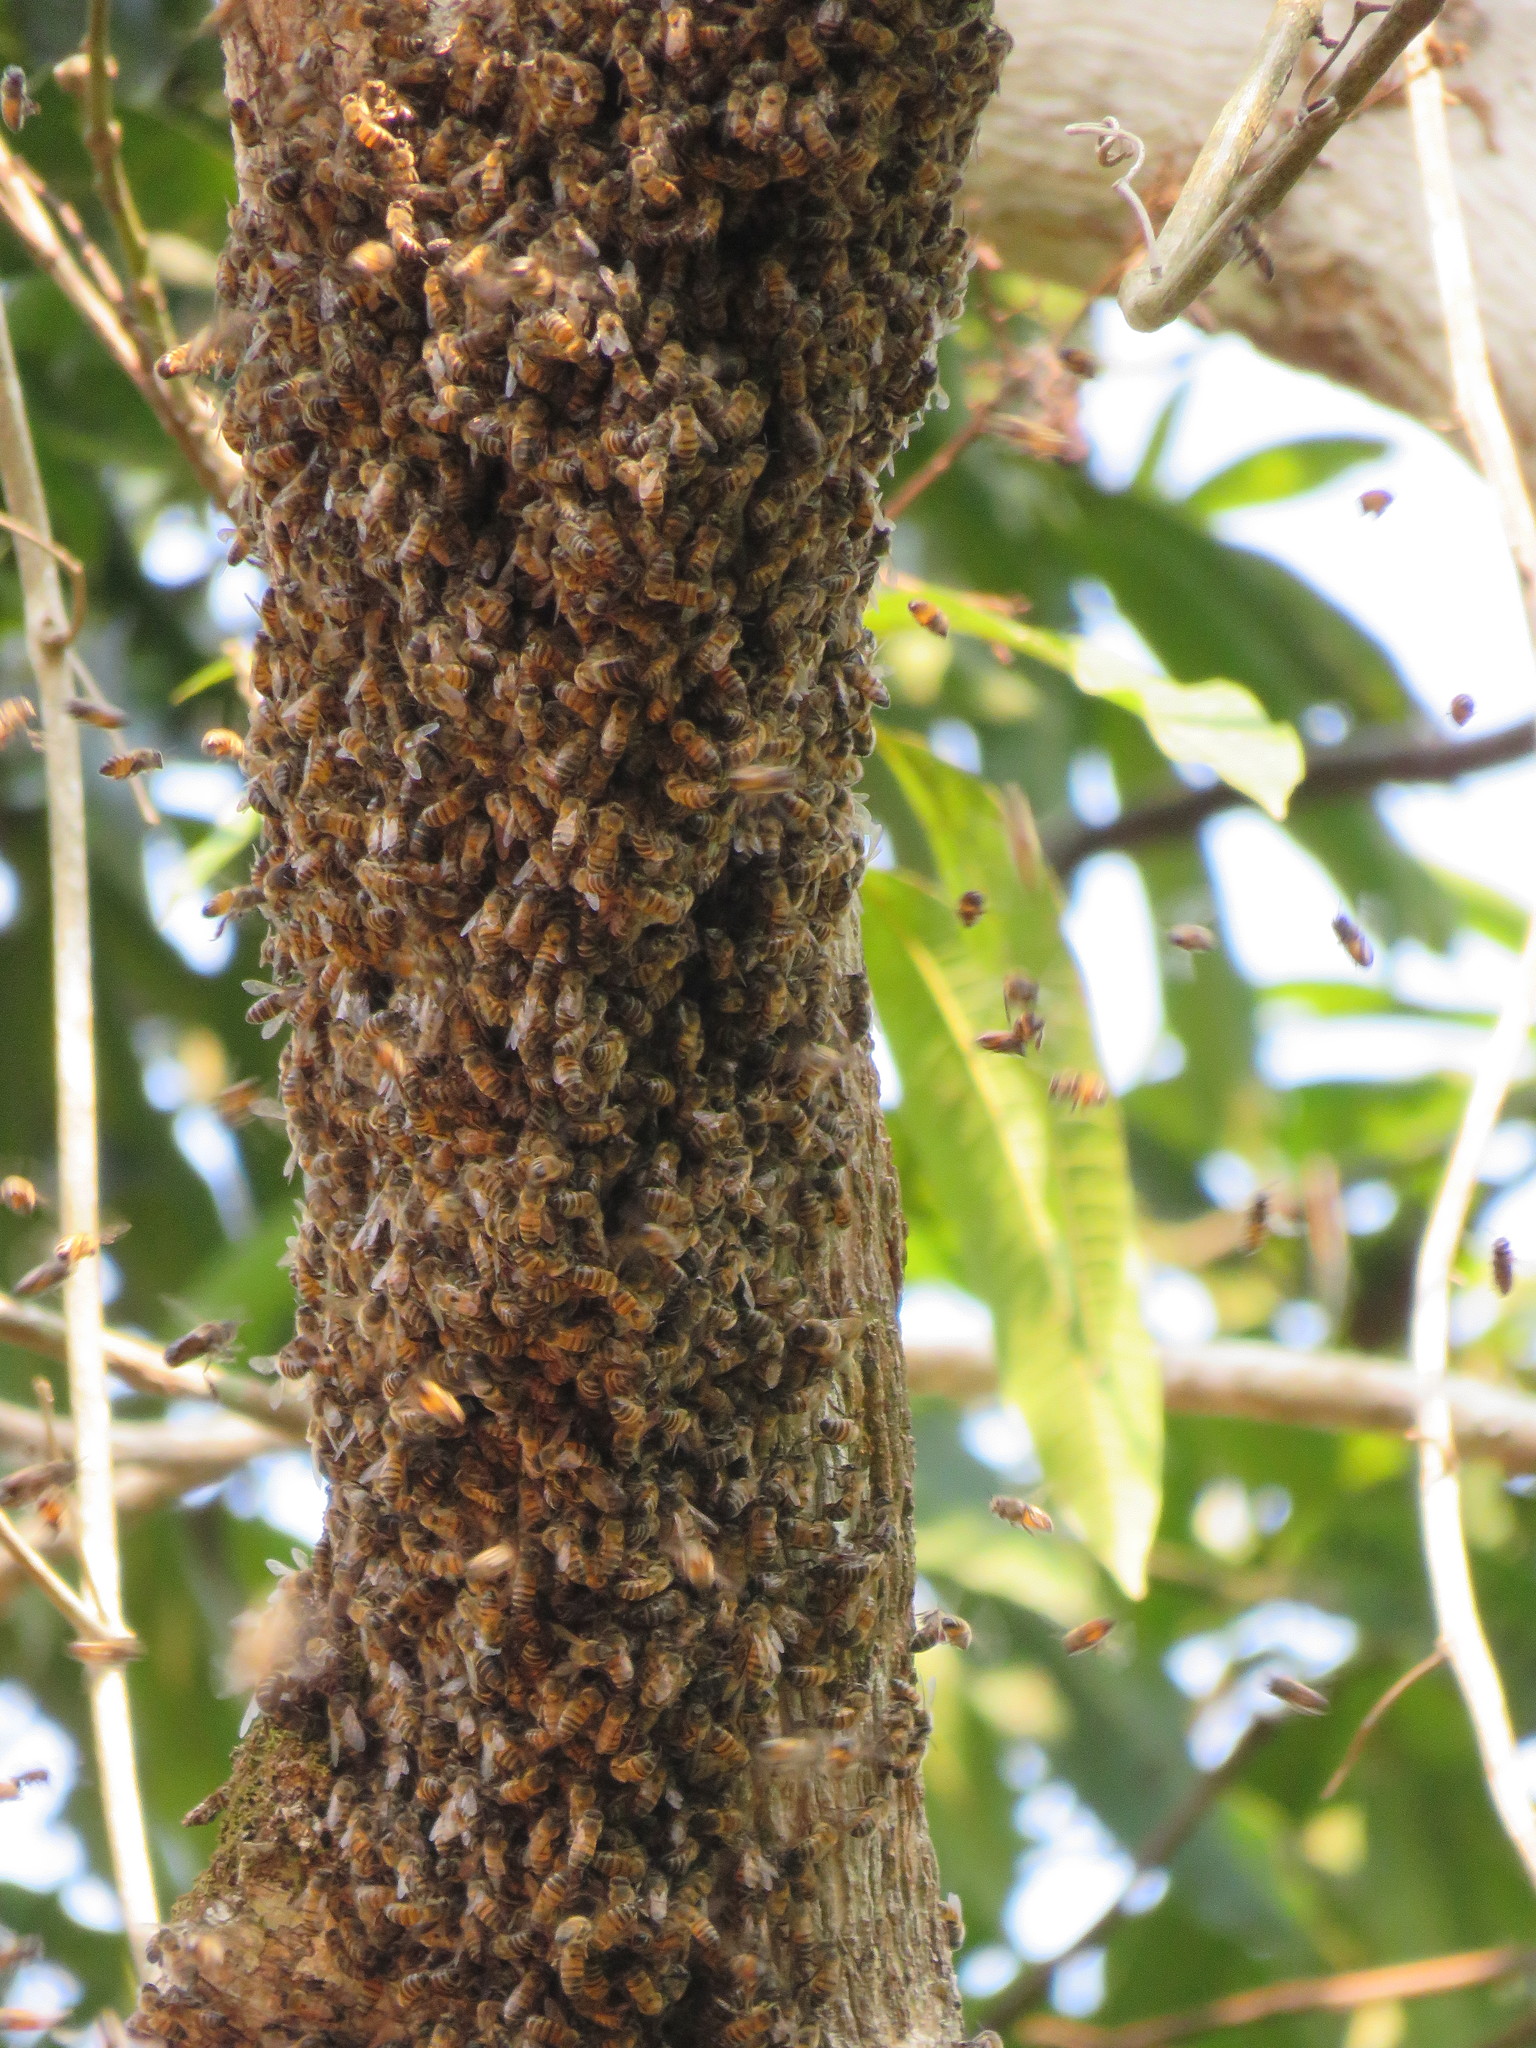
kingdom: Animalia
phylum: Arthropoda
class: Insecta
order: Hymenoptera
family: Apidae
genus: Apis
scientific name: Apis mellifera
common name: Honey bee
